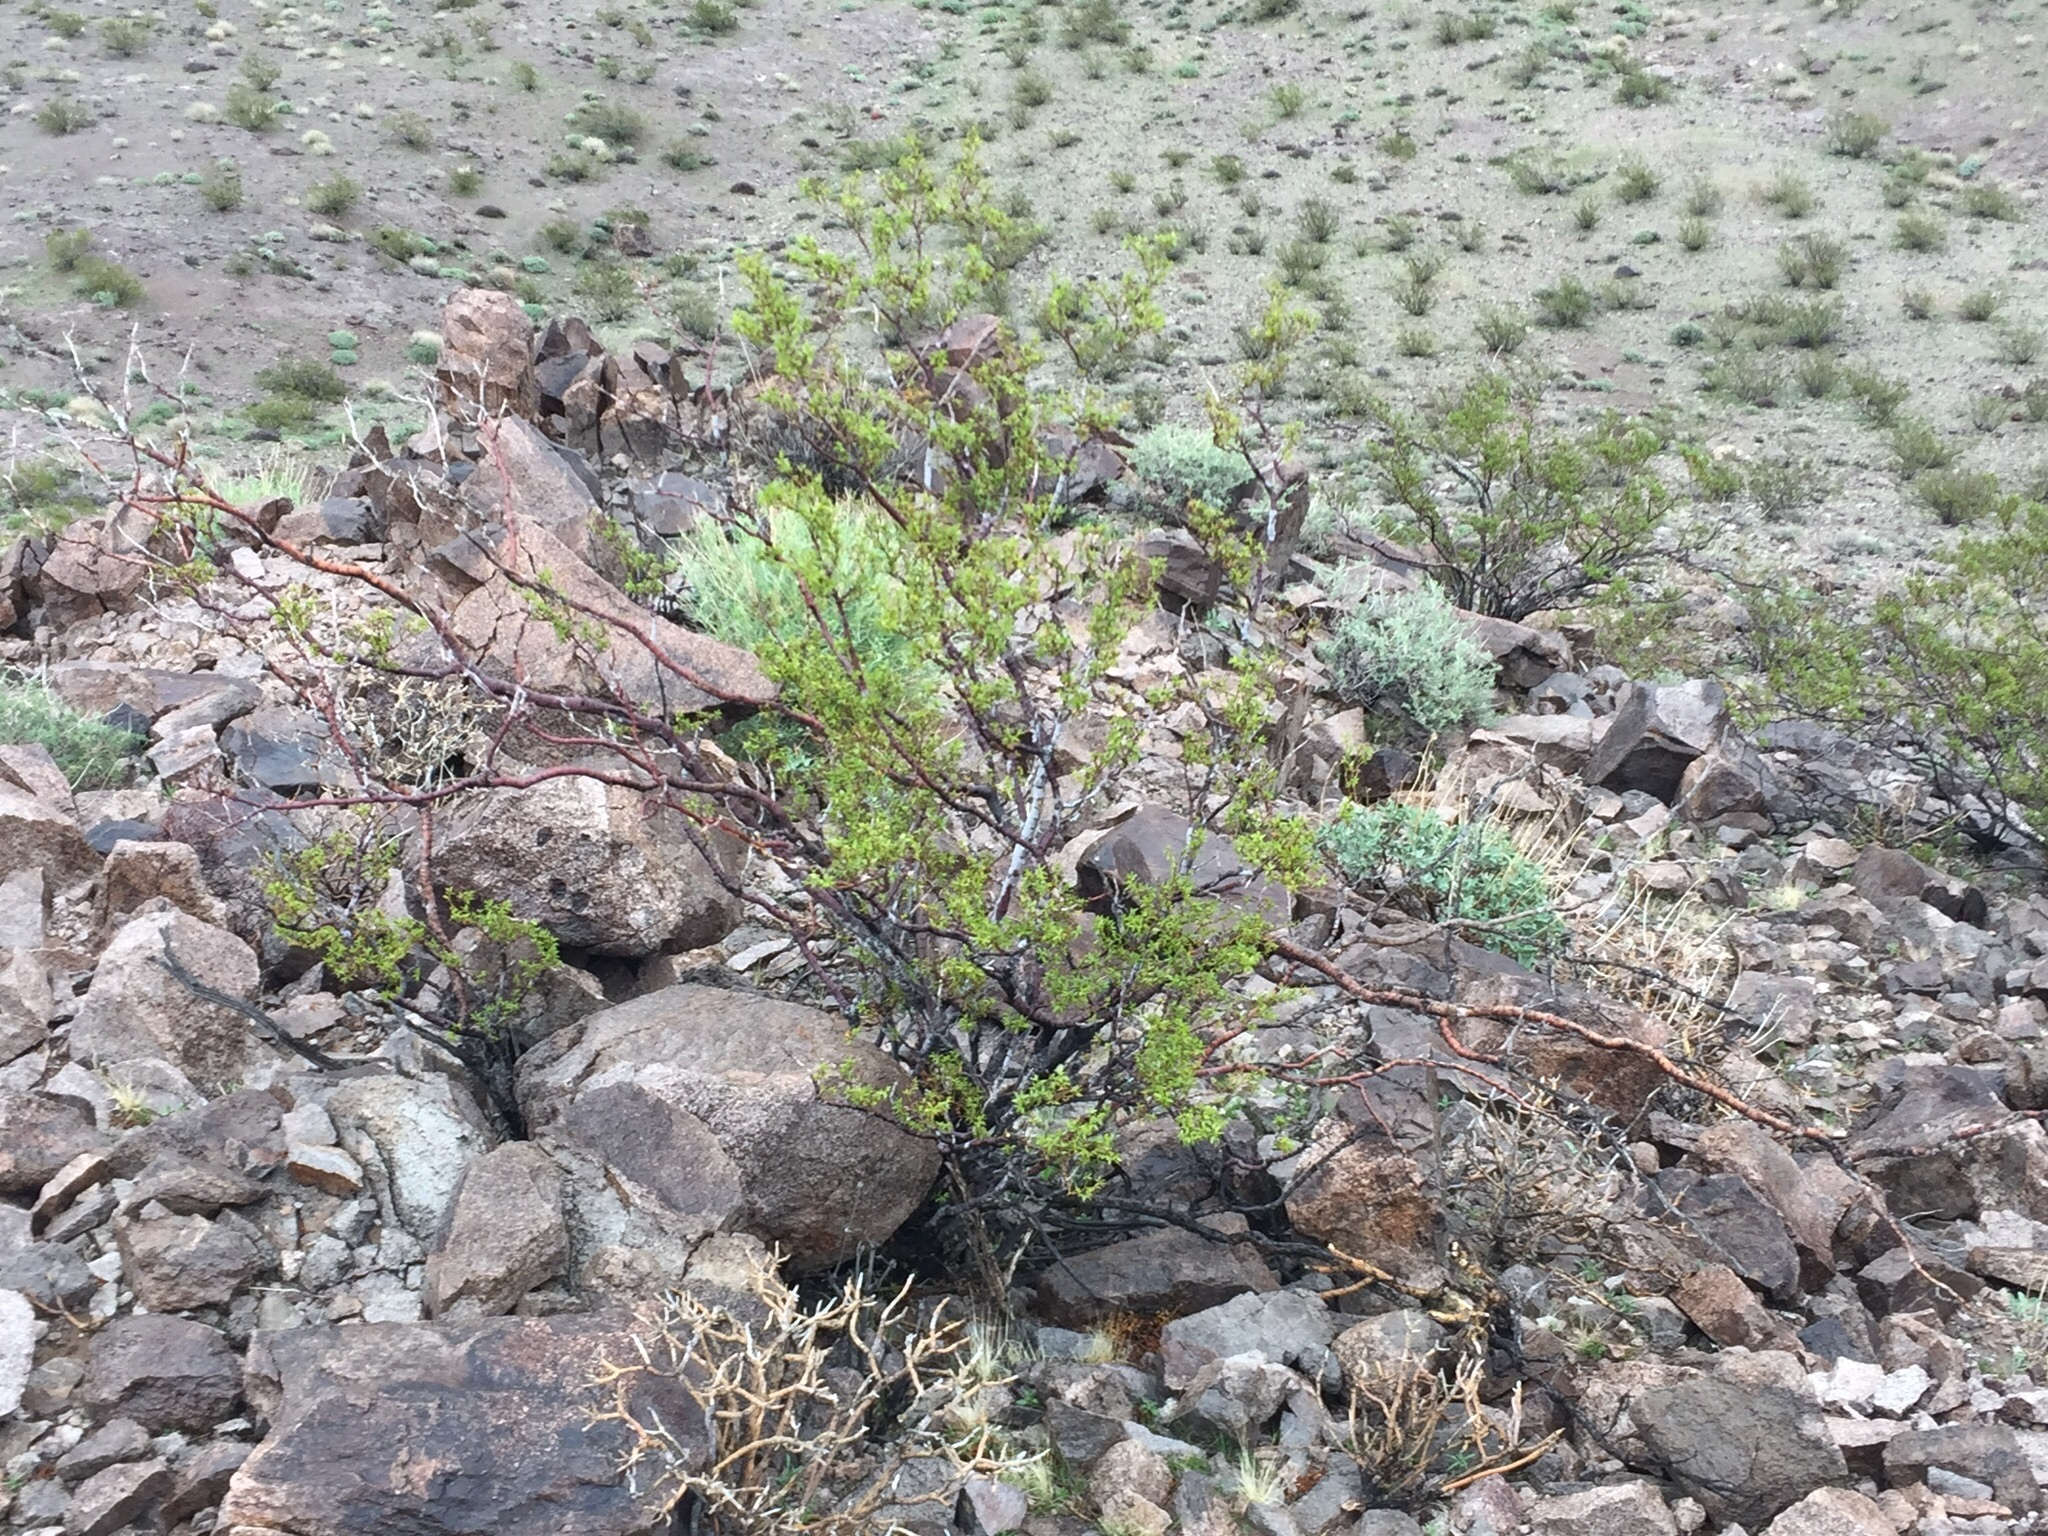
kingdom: Plantae
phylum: Tracheophyta
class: Magnoliopsida
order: Zygophyllales
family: Zygophyllaceae
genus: Larrea
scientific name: Larrea tridentata
